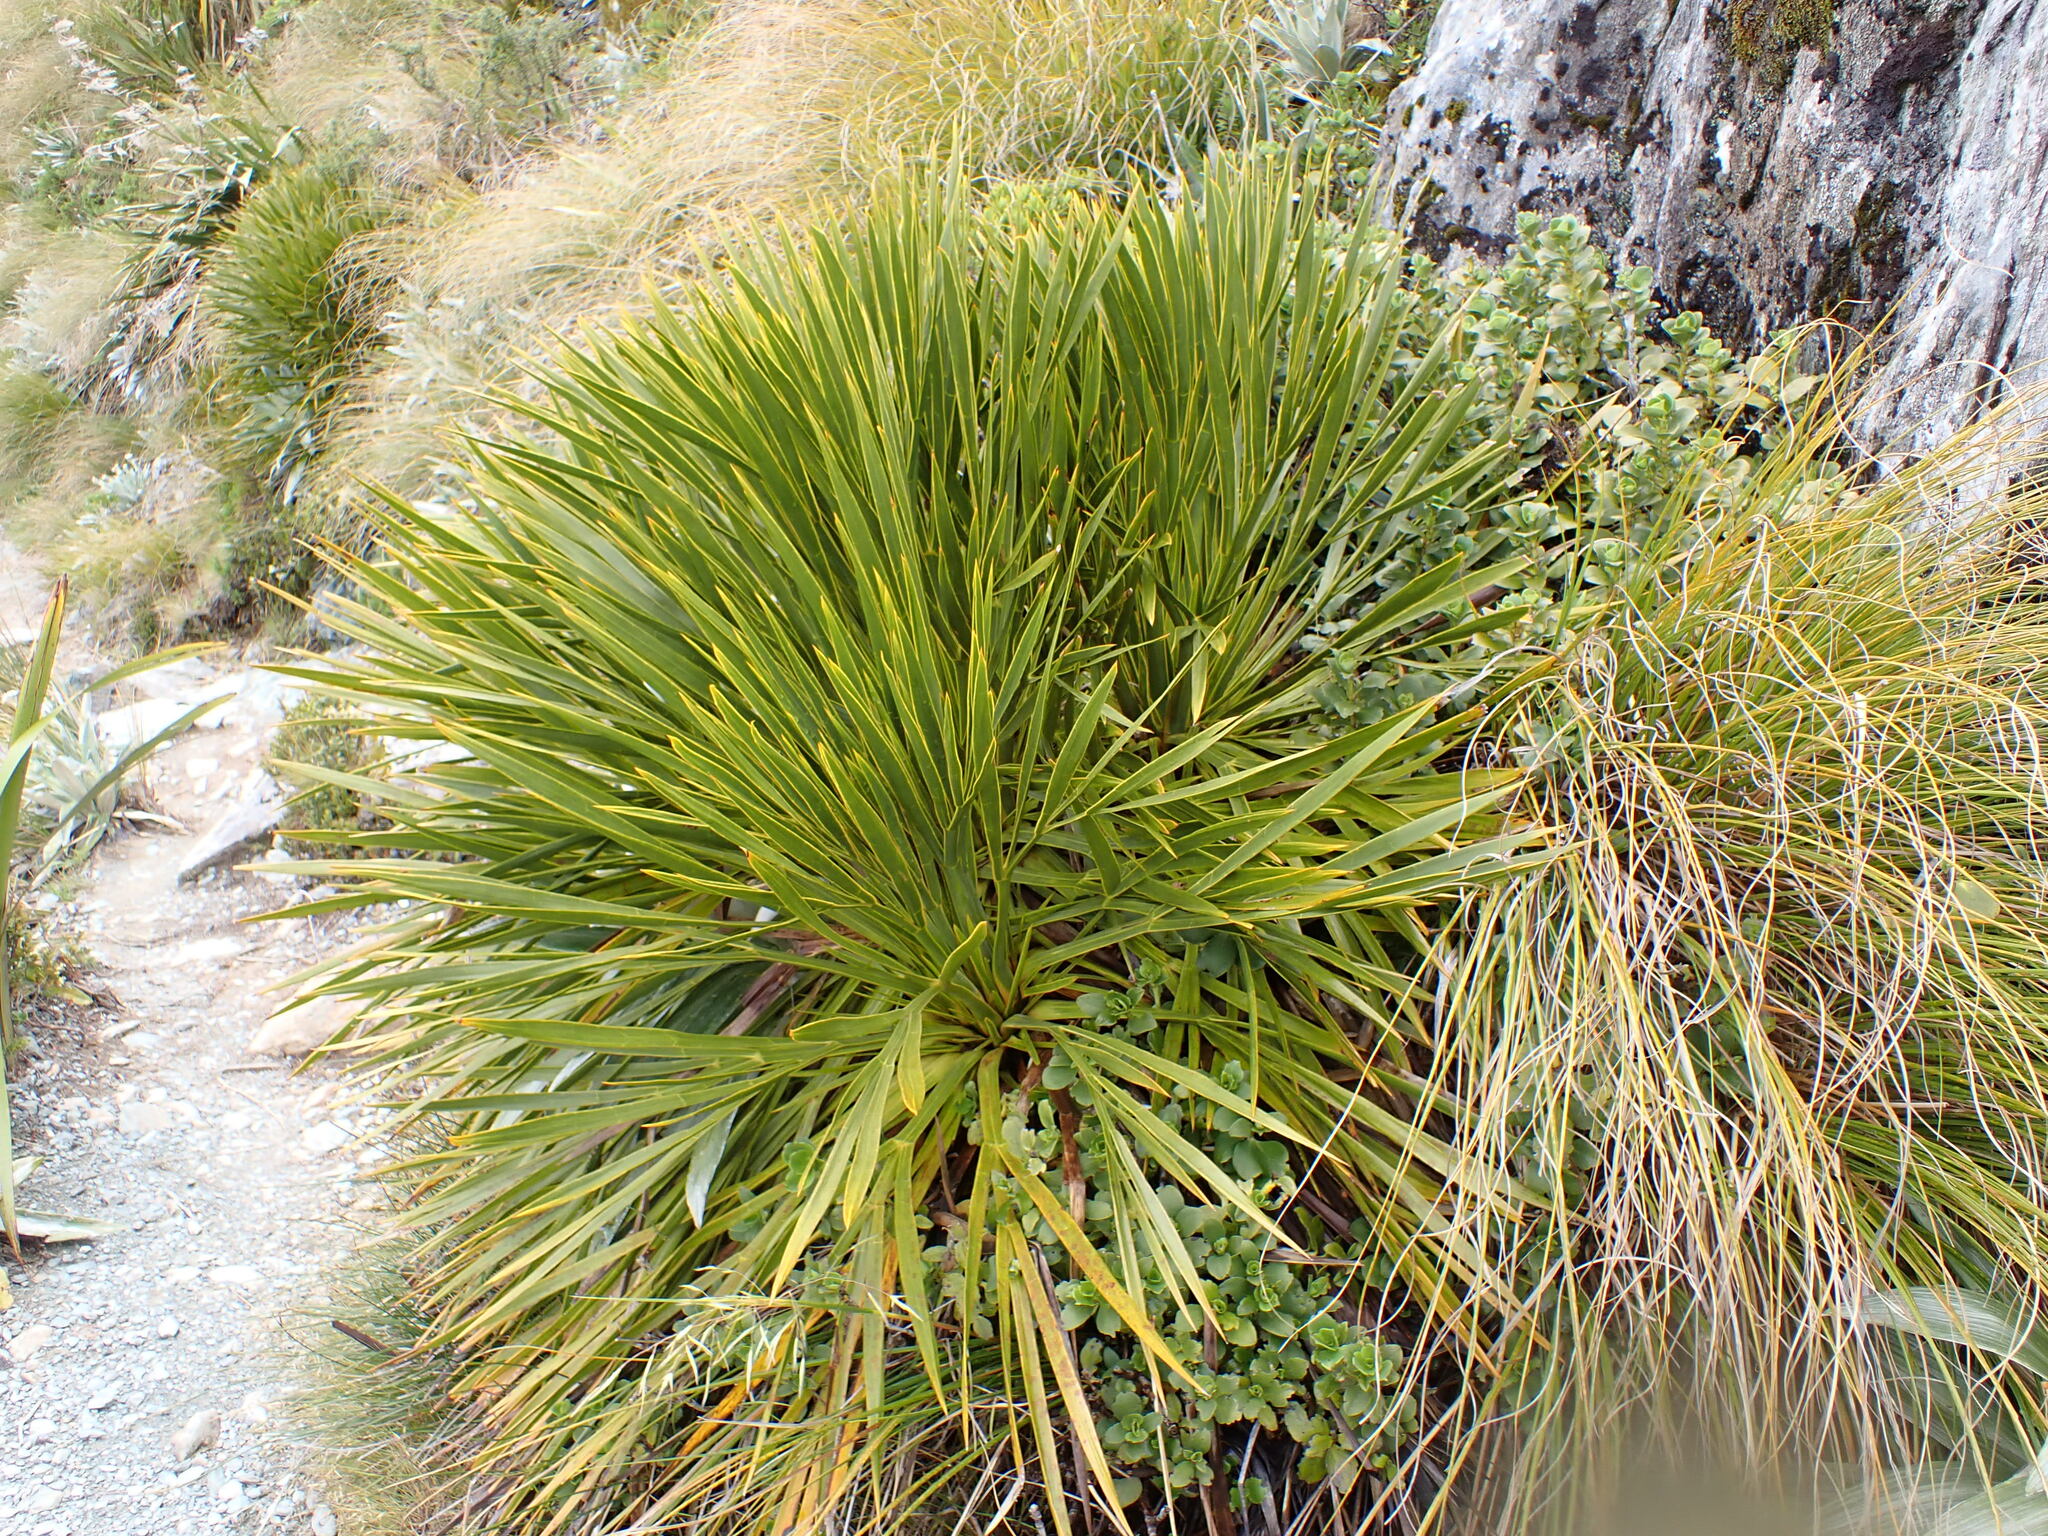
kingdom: Plantae
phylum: Tracheophyta
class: Magnoliopsida
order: Apiales
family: Apiaceae
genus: Aciphylla
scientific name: Aciphylla horrida
